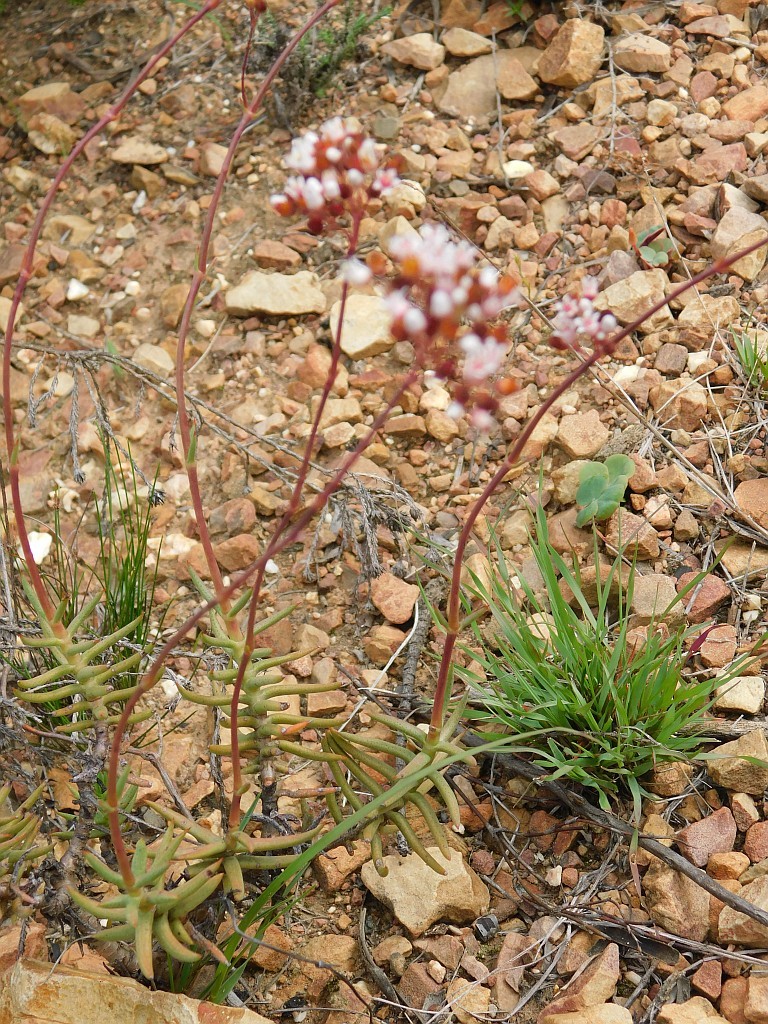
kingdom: Plantae
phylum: Tracheophyta
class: Magnoliopsida
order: Saxifragales
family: Crassulaceae
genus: Crassula
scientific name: Crassula tetragona
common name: Pygmyweed
